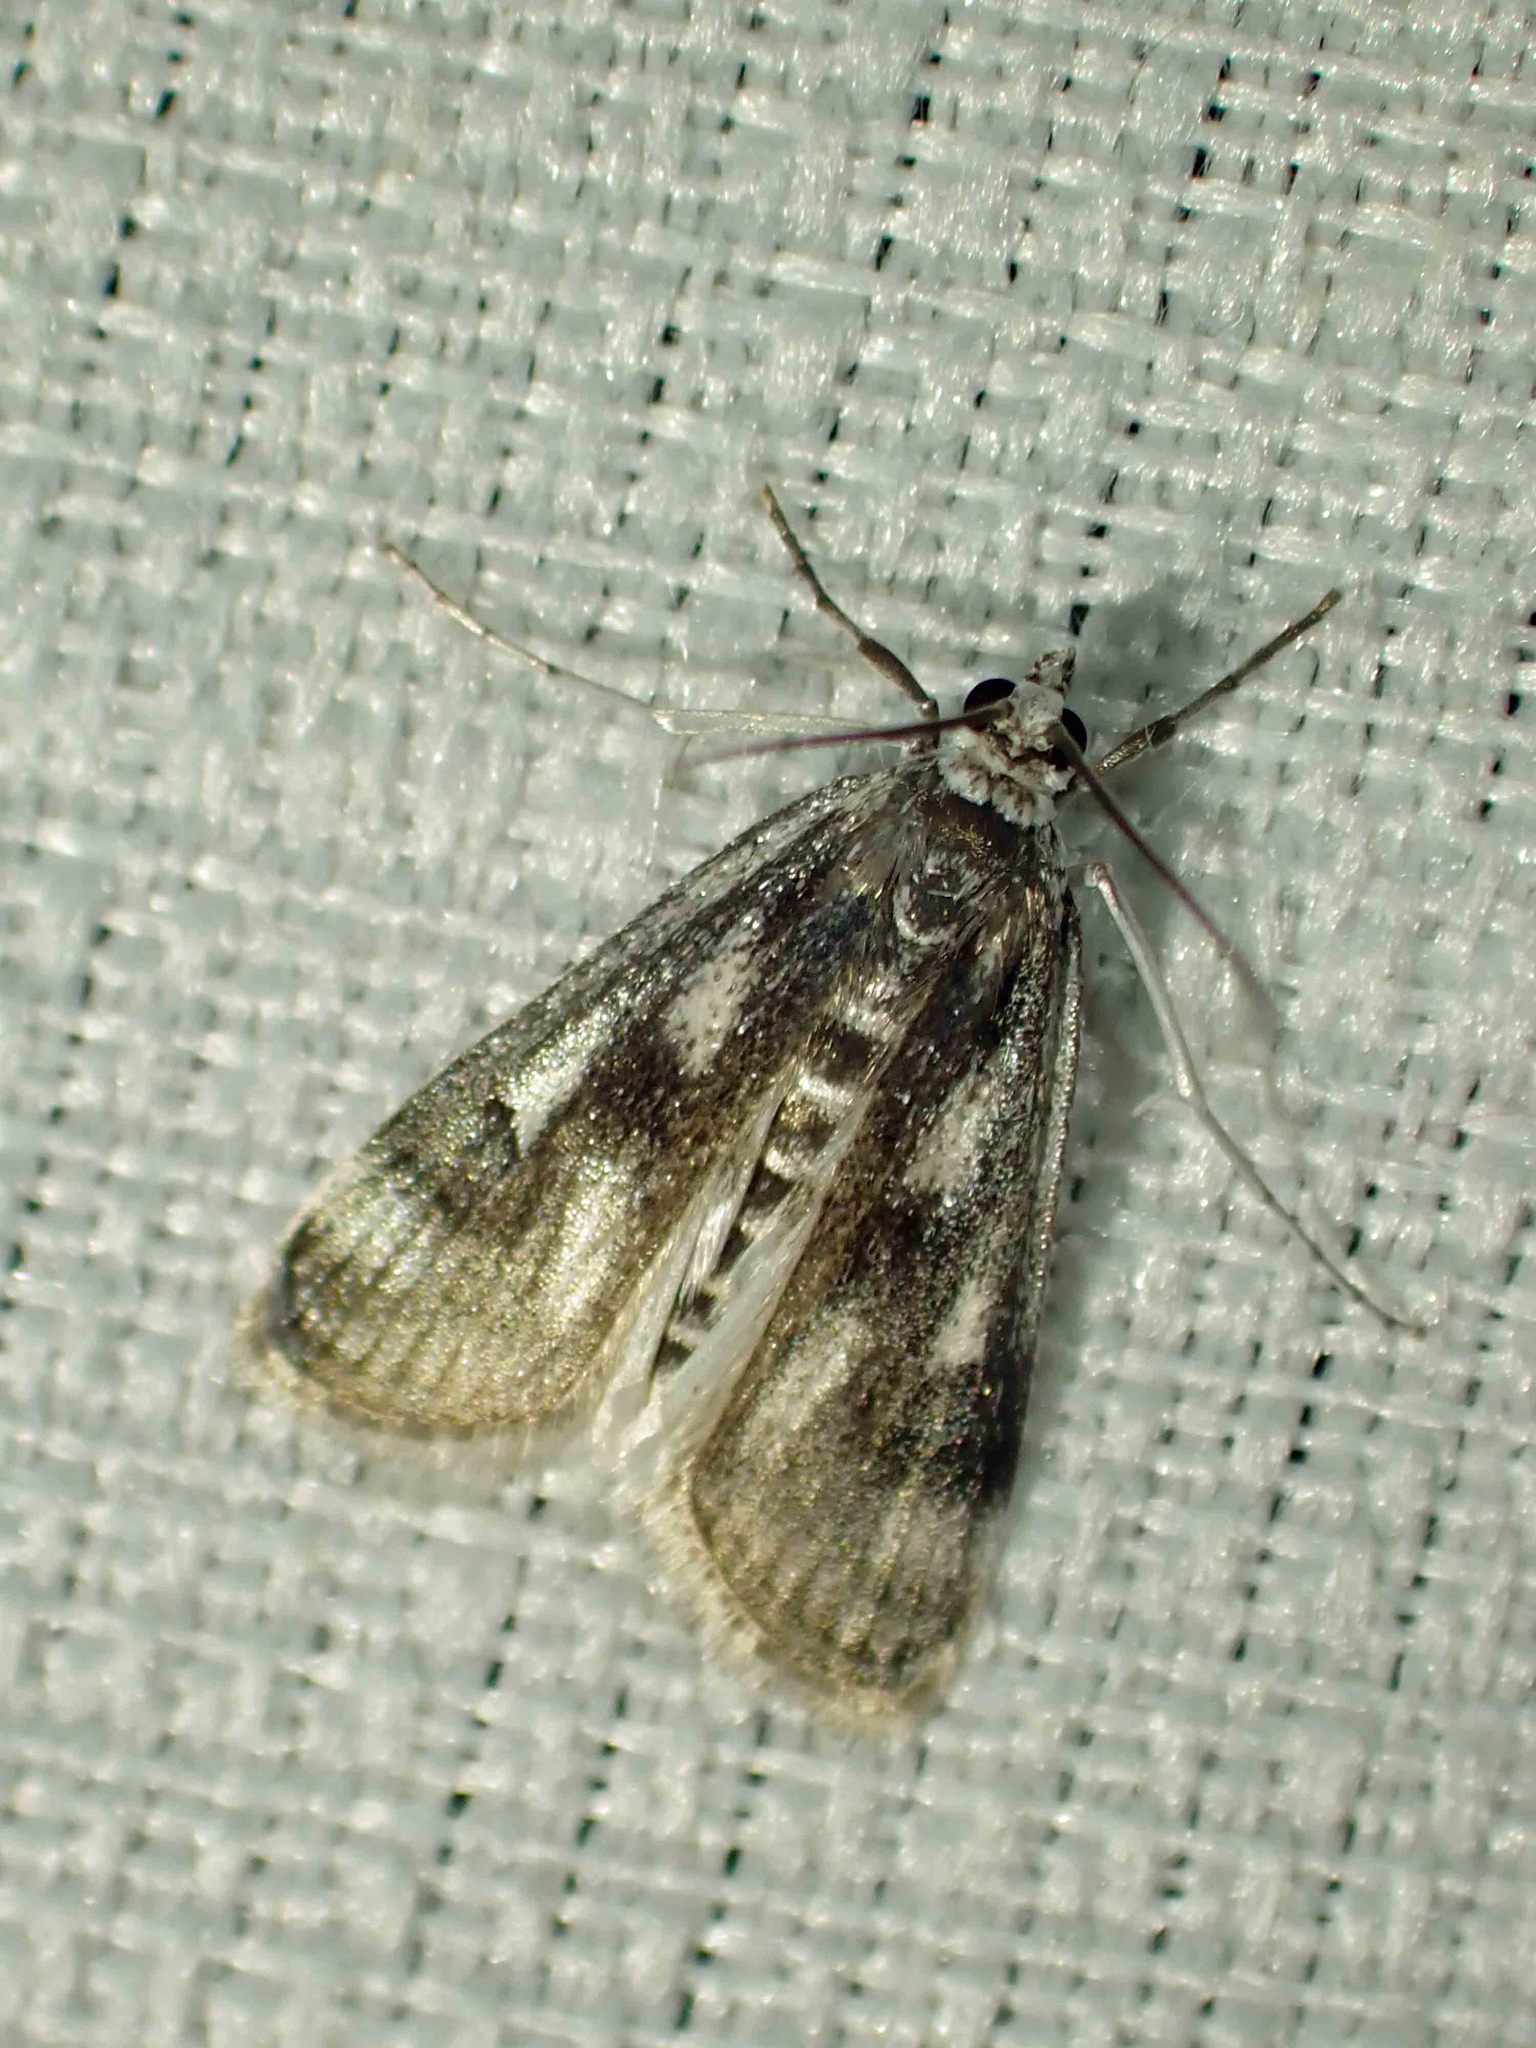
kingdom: Animalia
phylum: Arthropoda
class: Insecta
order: Lepidoptera
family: Crambidae
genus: Parapoynx
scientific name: Parapoynx maculalis
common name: Polymorphic pondweed moth
